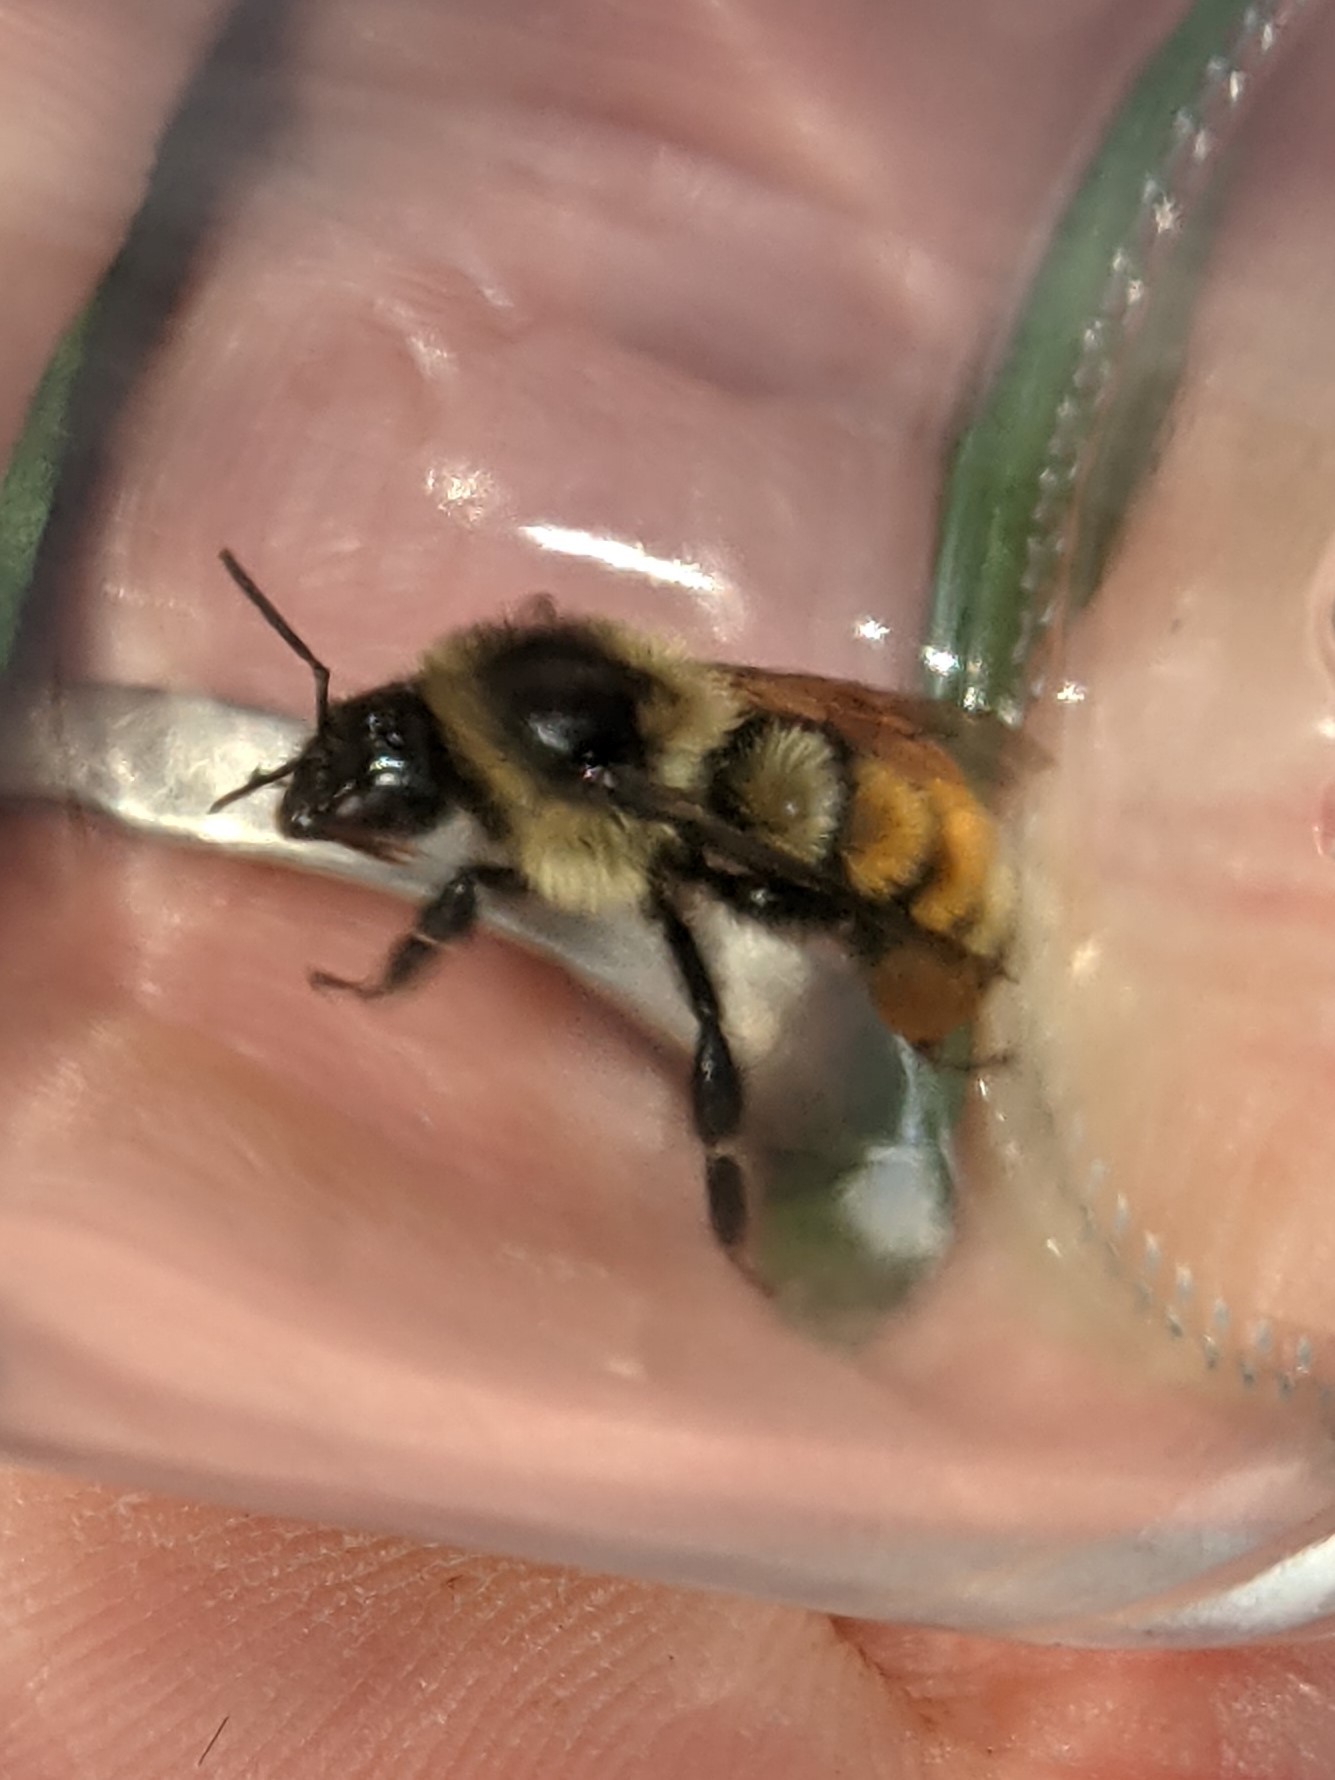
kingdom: Animalia
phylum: Arthropoda
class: Insecta
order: Hymenoptera
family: Apidae
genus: Bombus
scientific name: Bombus ternarius
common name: Tri-colored bumble bee
